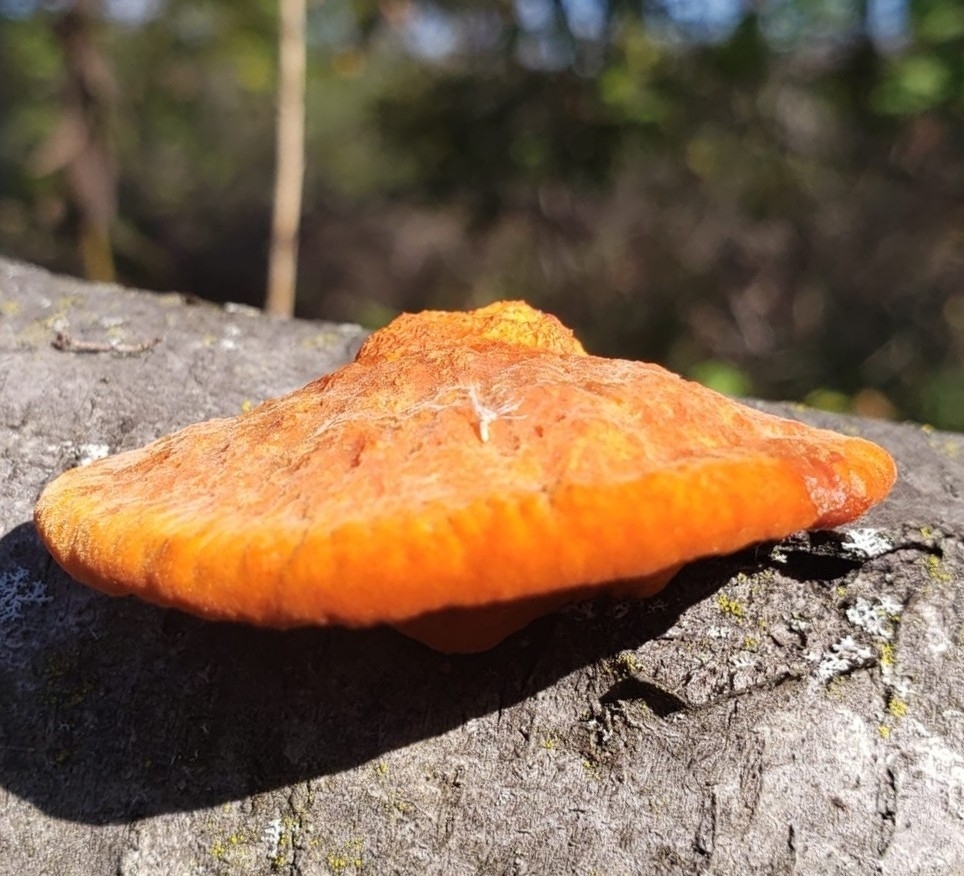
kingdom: Fungi
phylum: Basidiomycota
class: Agaricomycetes
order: Polyporales
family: Polyporaceae
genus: Trametes
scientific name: Trametes cinnabarina
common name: Northern cinnabar polypore
